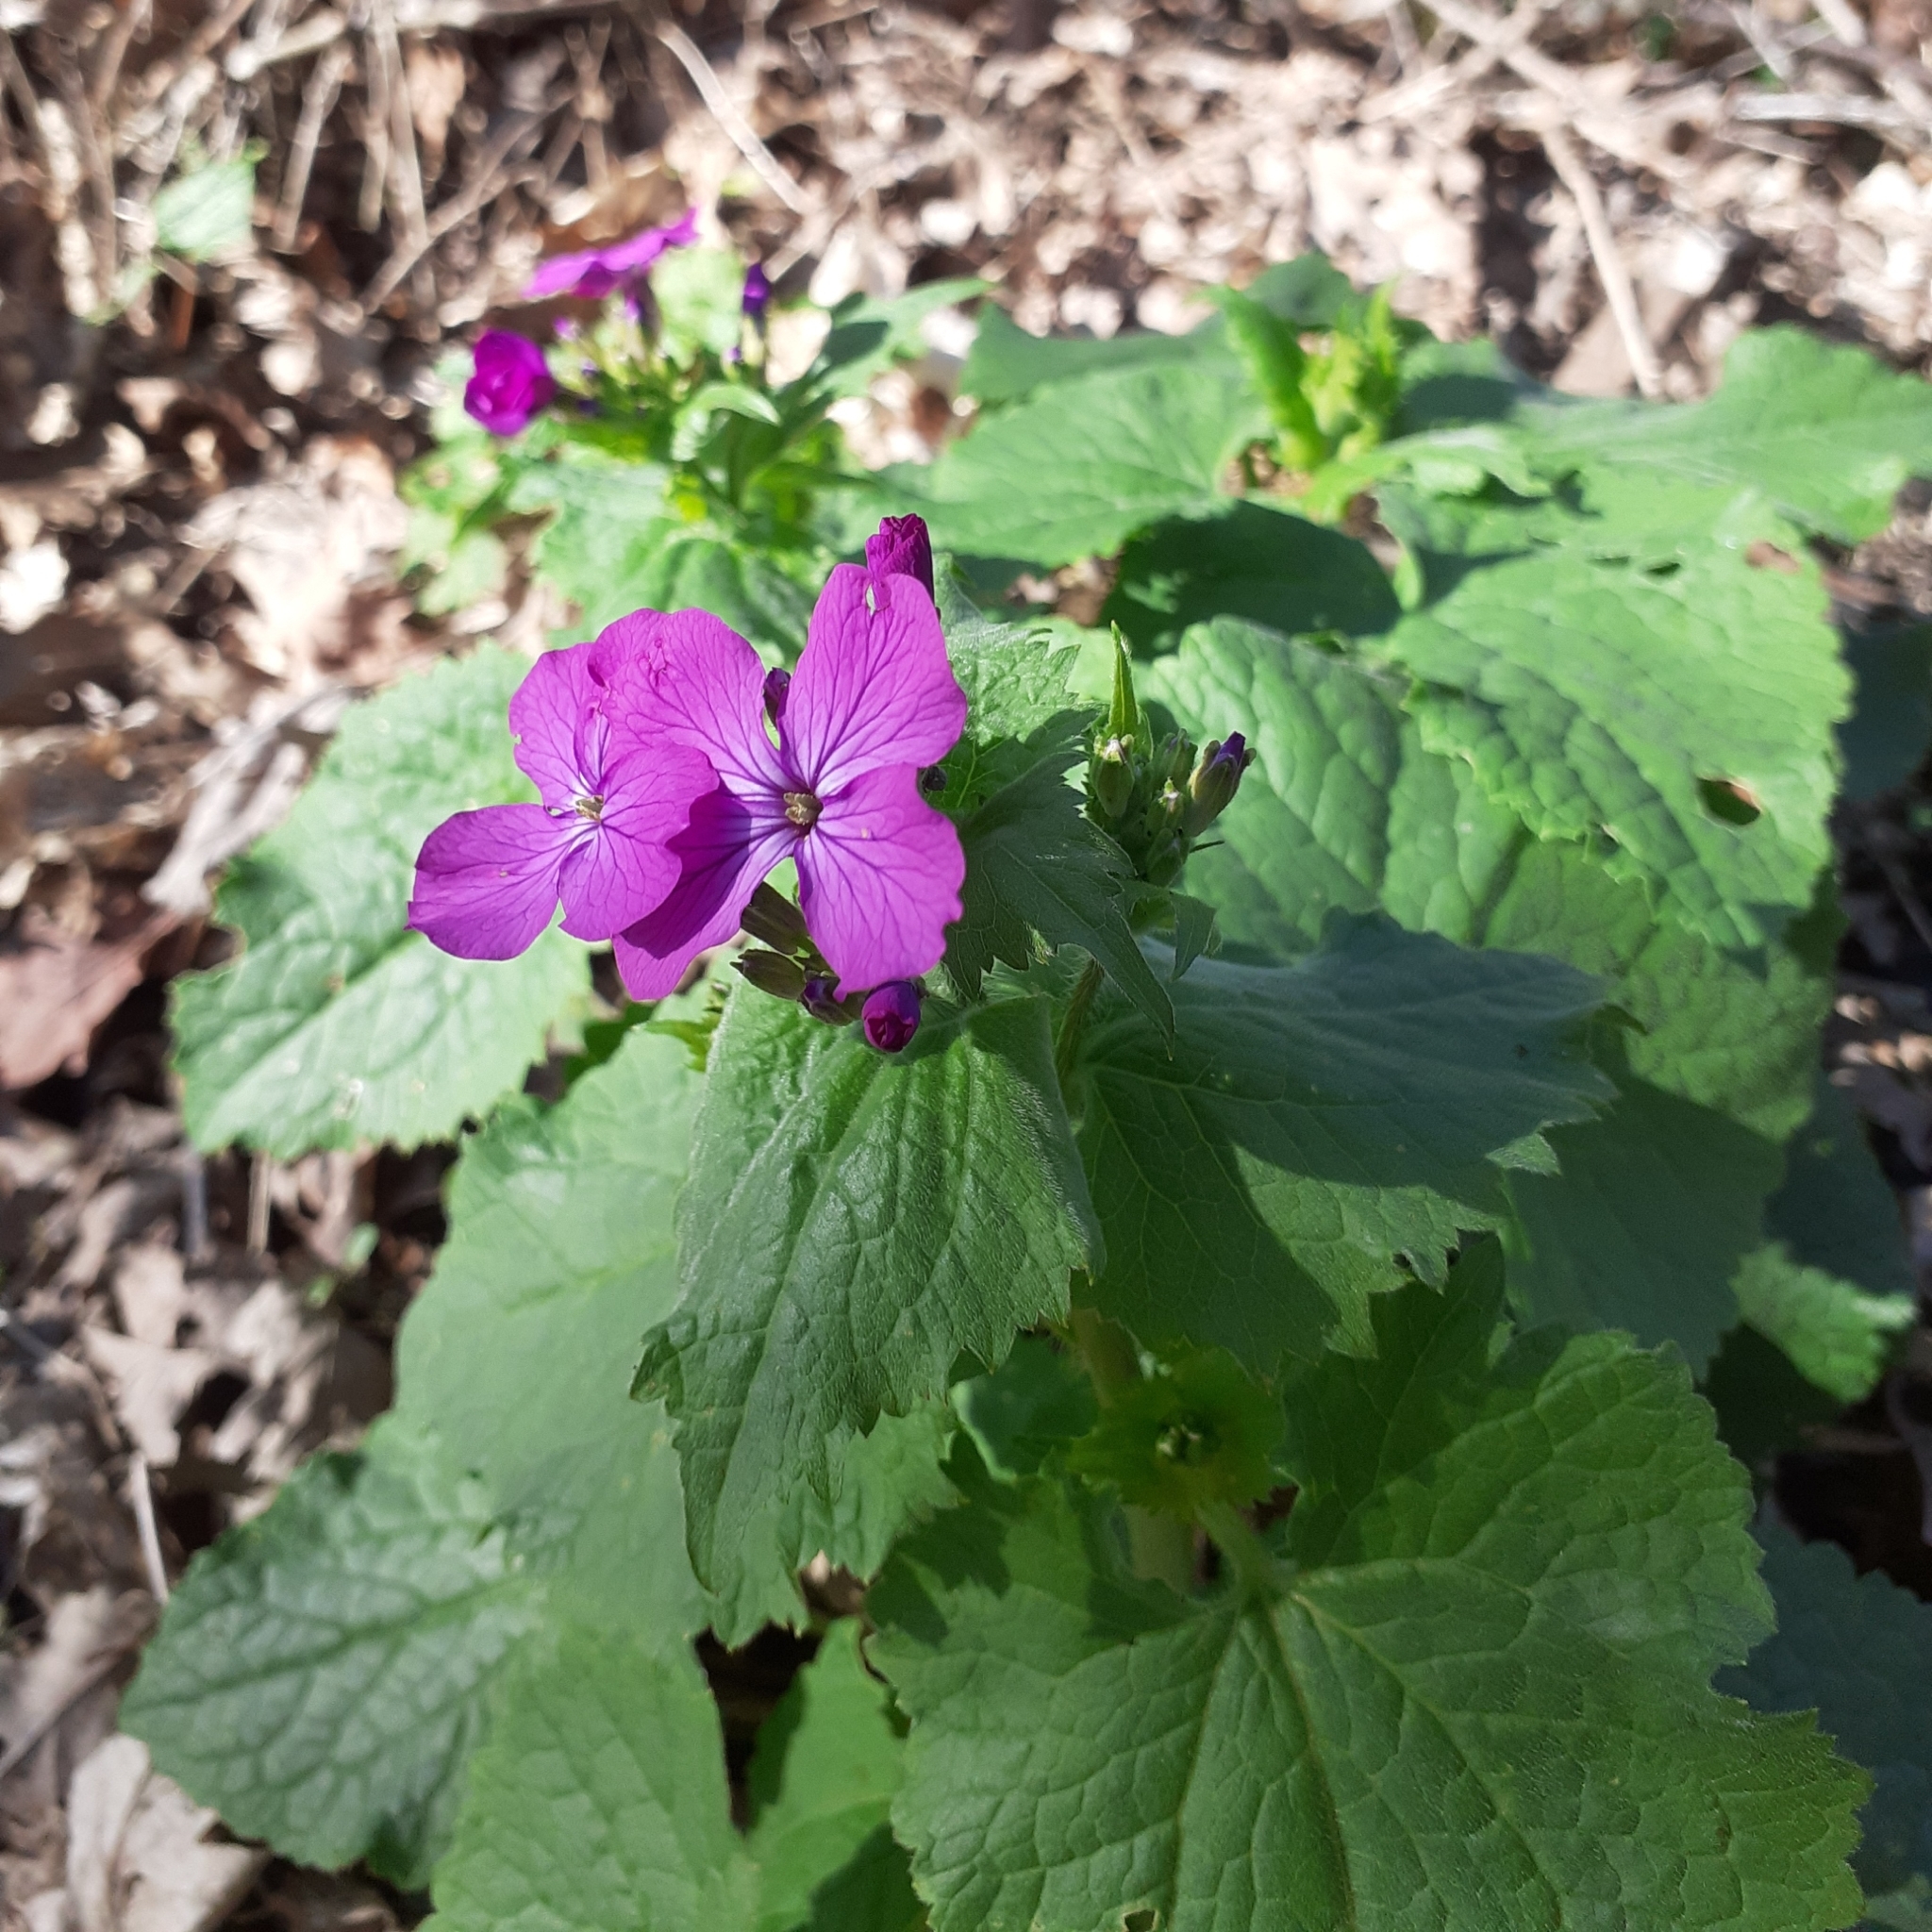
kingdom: Plantae
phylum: Tracheophyta
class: Magnoliopsida
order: Brassicales
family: Brassicaceae
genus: Lunaria
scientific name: Lunaria annua
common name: Honesty
